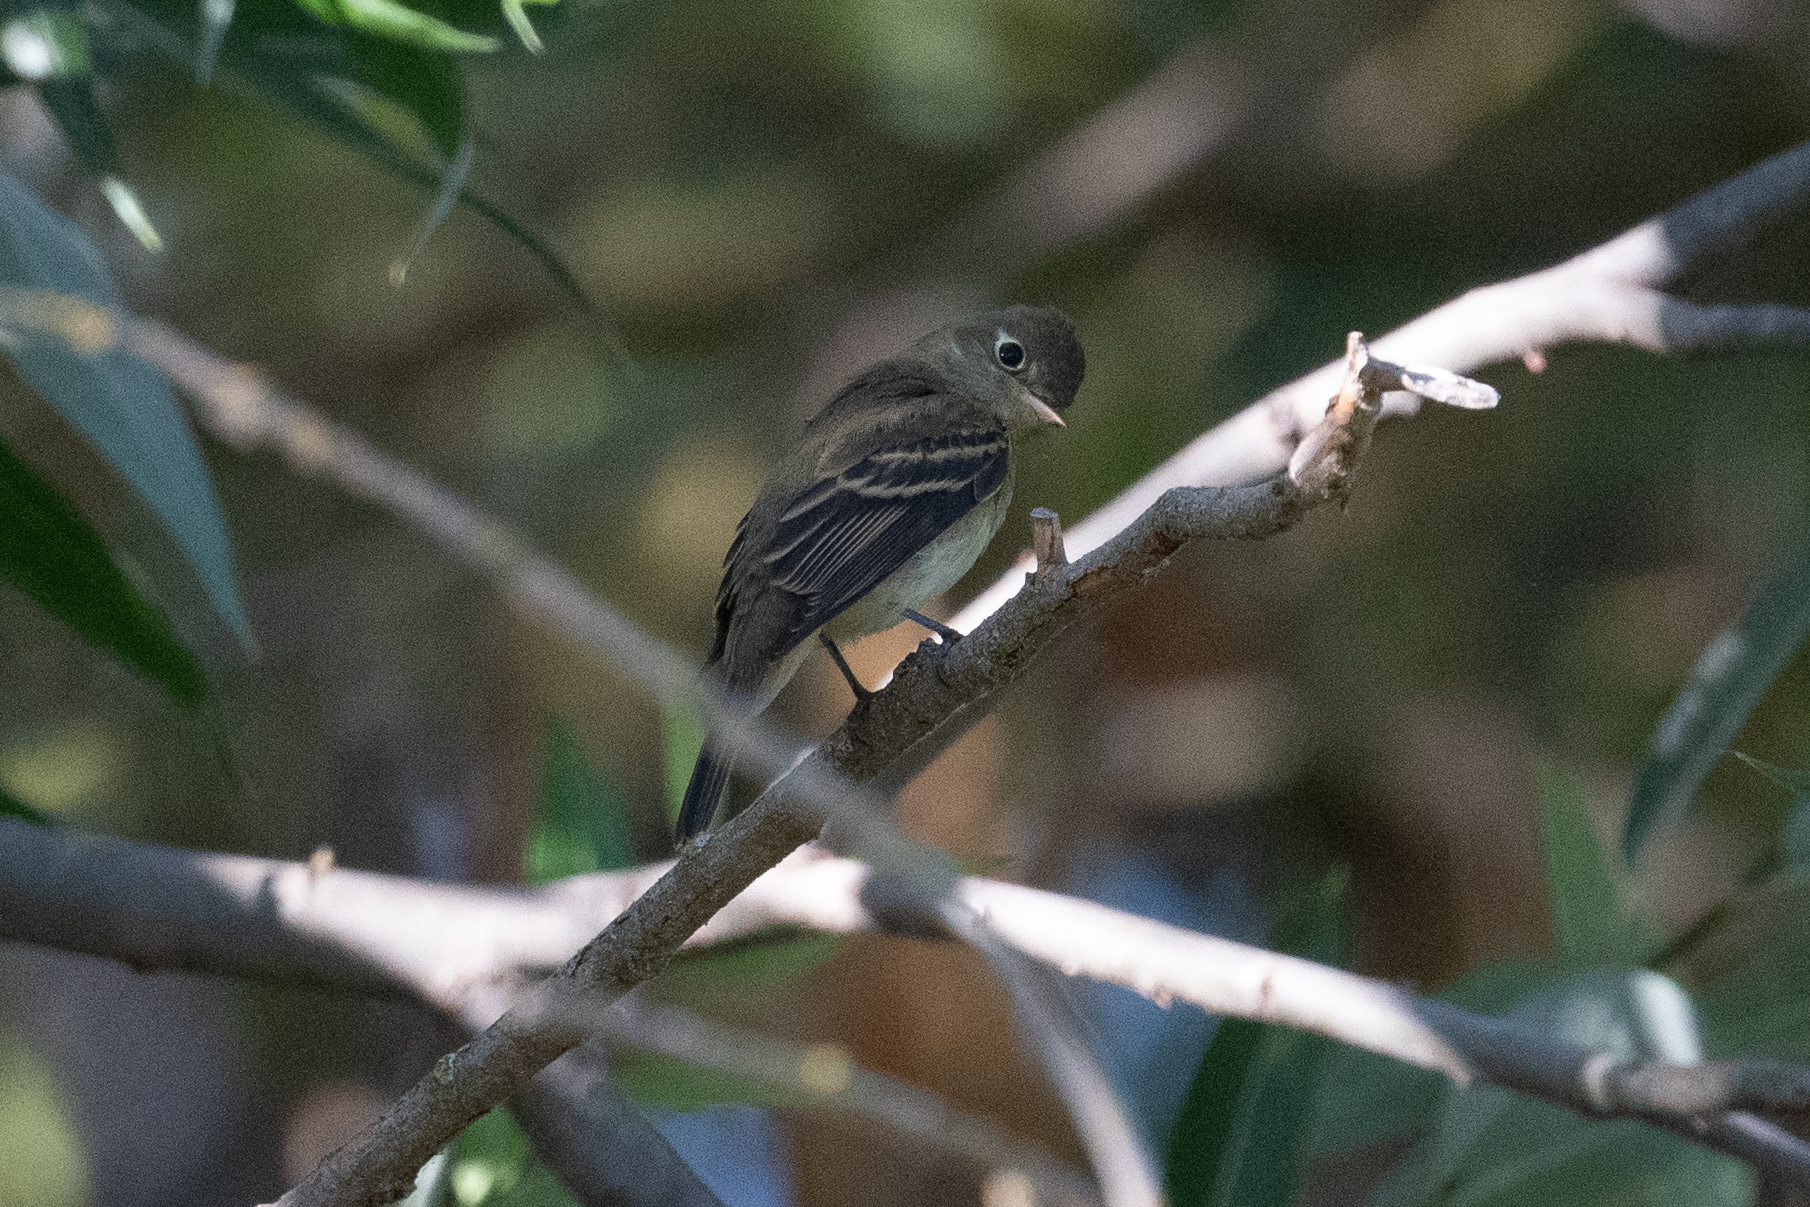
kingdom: Animalia
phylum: Chordata
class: Aves
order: Passeriformes
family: Tyrannidae
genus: Empidonax
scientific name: Empidonax difficilis
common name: Pacific-slope flycatcher
